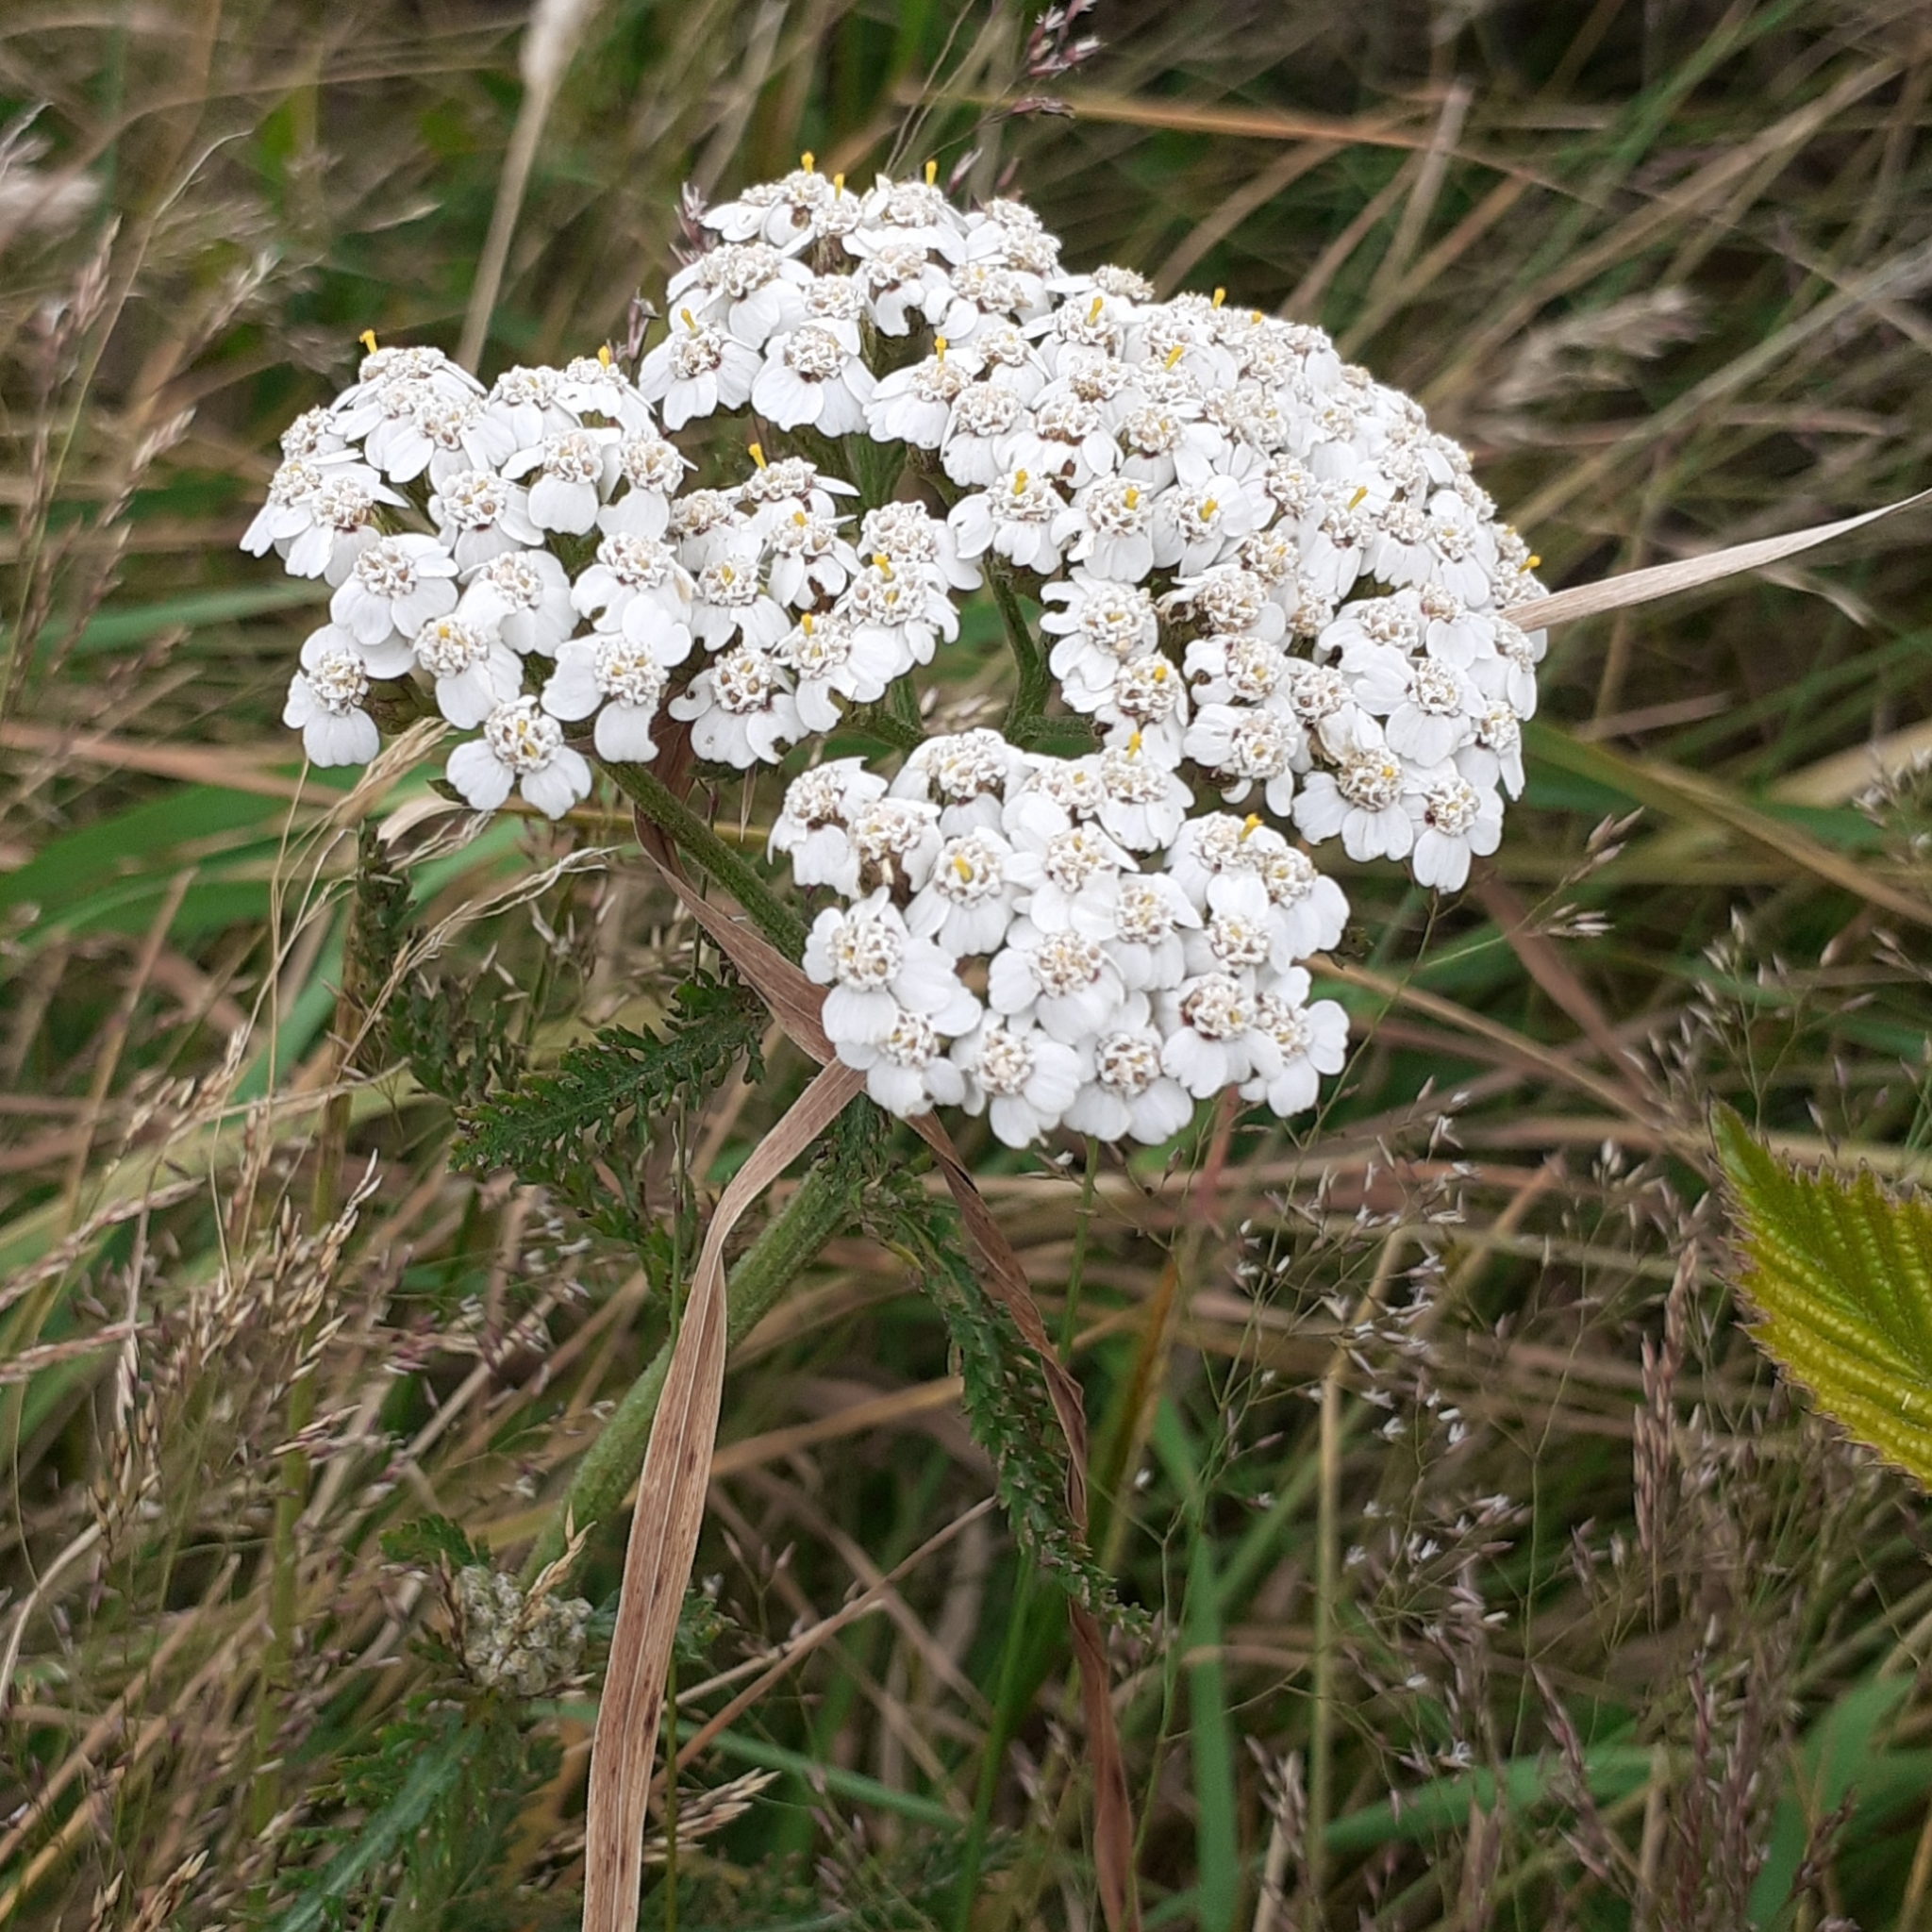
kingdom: Plantae
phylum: Tracheophyta
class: Magnoliopsida
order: Asterales
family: Asteraceae
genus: Achillea
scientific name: Achillea millefolium
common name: Yarrow
